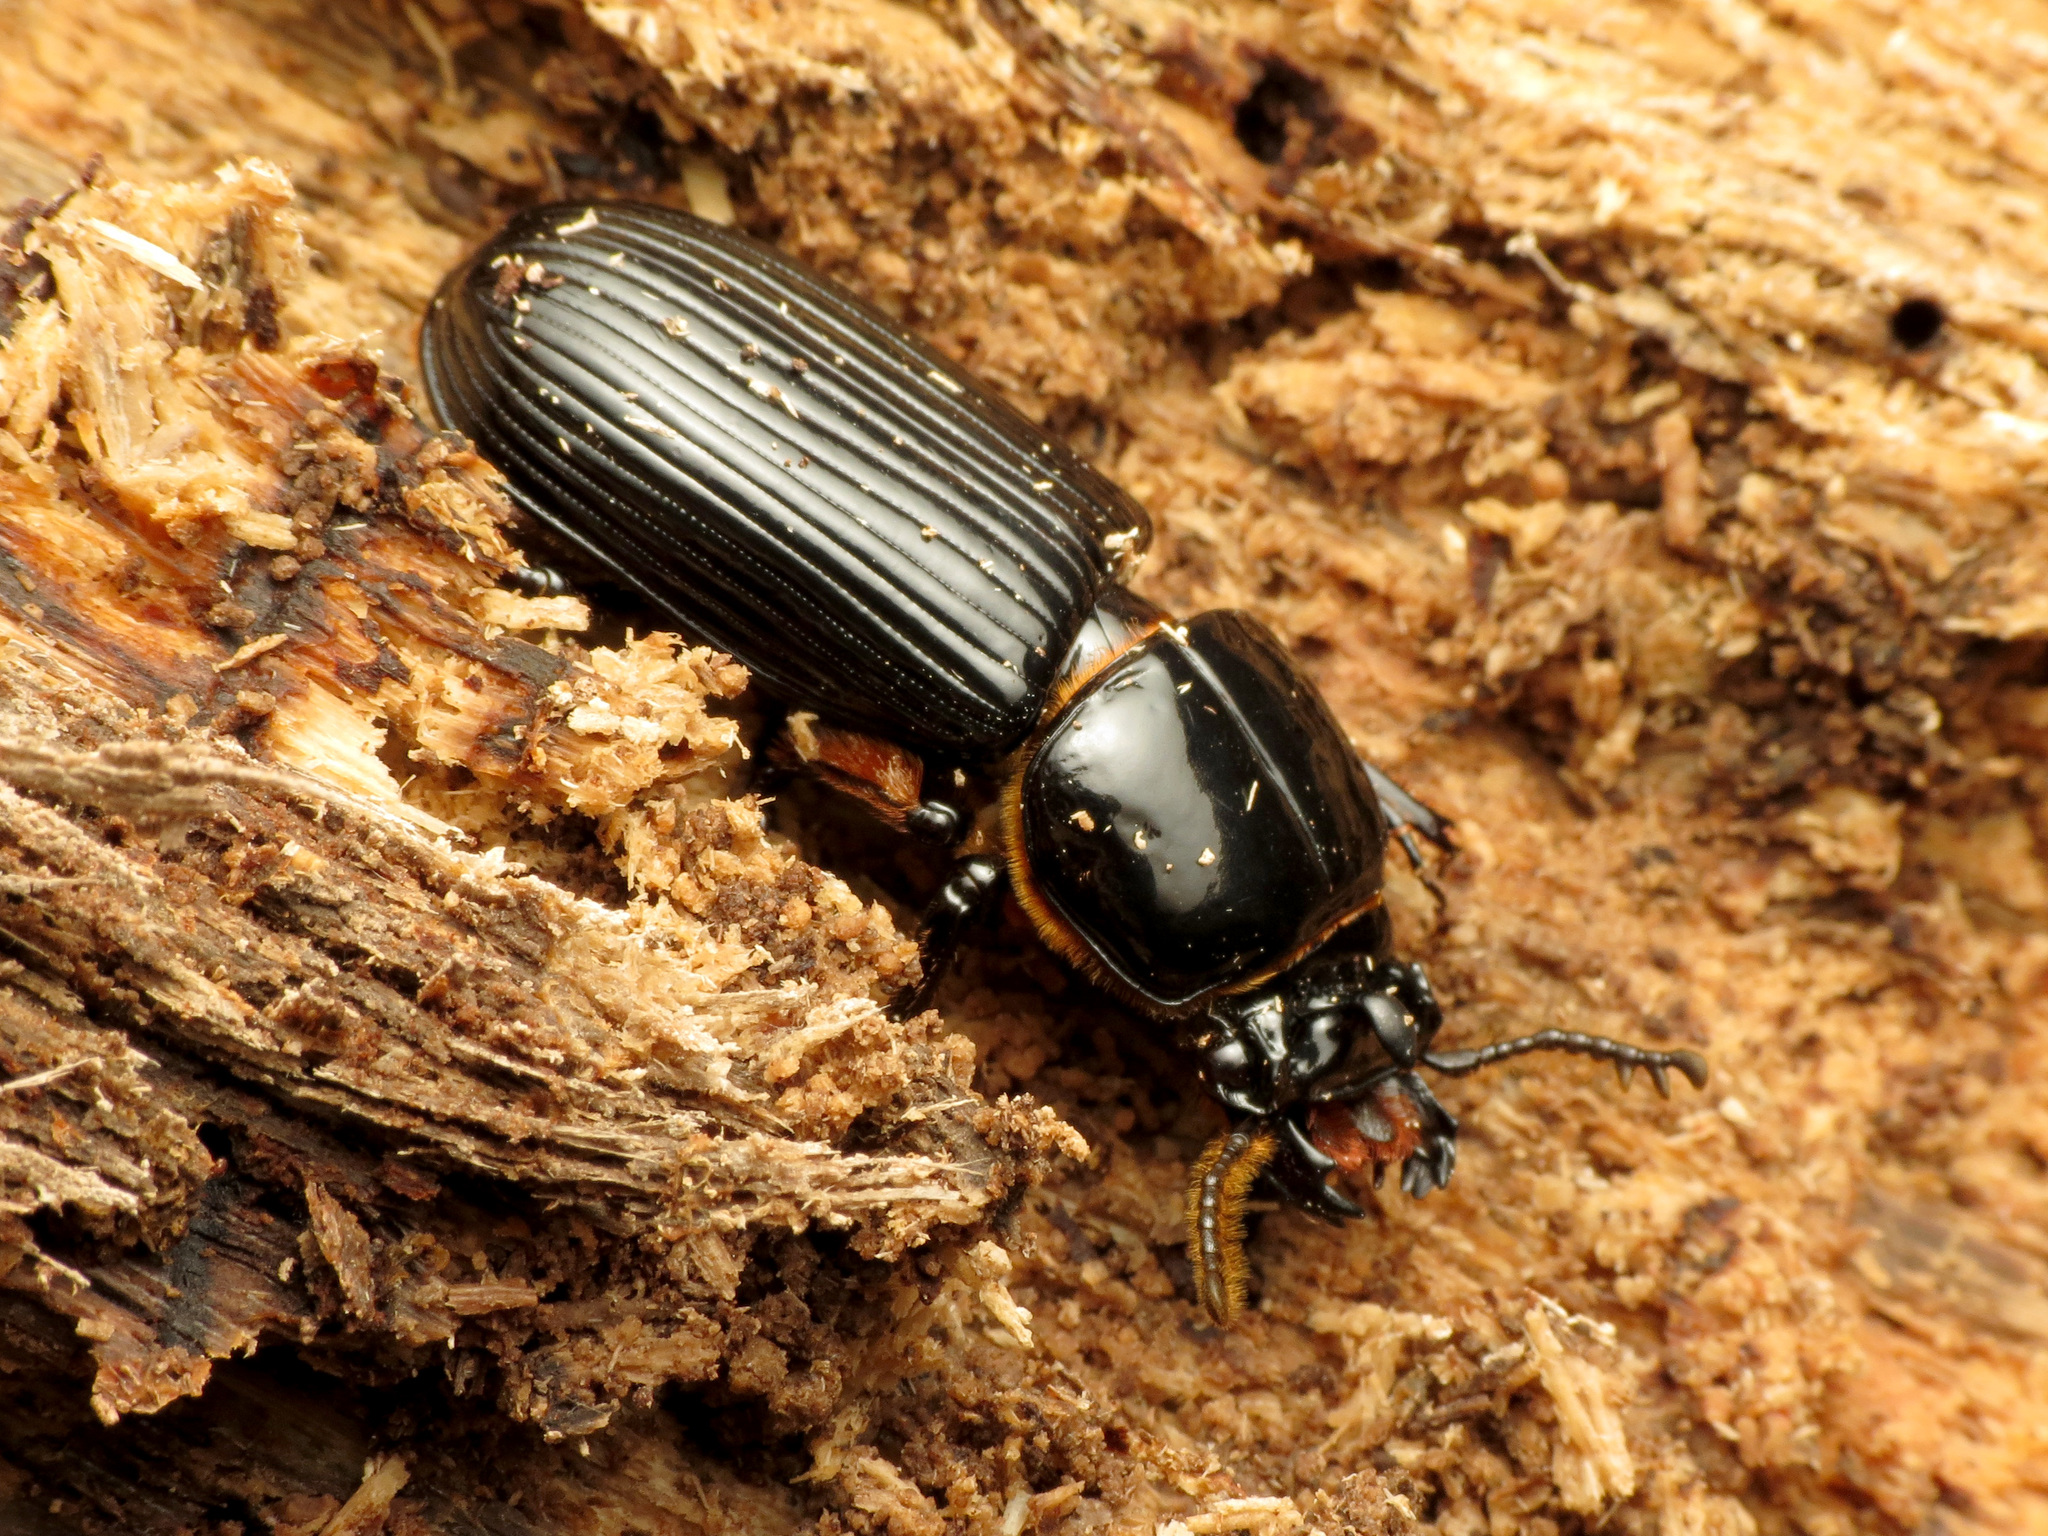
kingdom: Animalia
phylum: Arthropoda
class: Insecta
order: Coleoptera
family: Passalidae
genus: Odontotaenius
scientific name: Odontotaenius disjunctus
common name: Patent leather beetle
